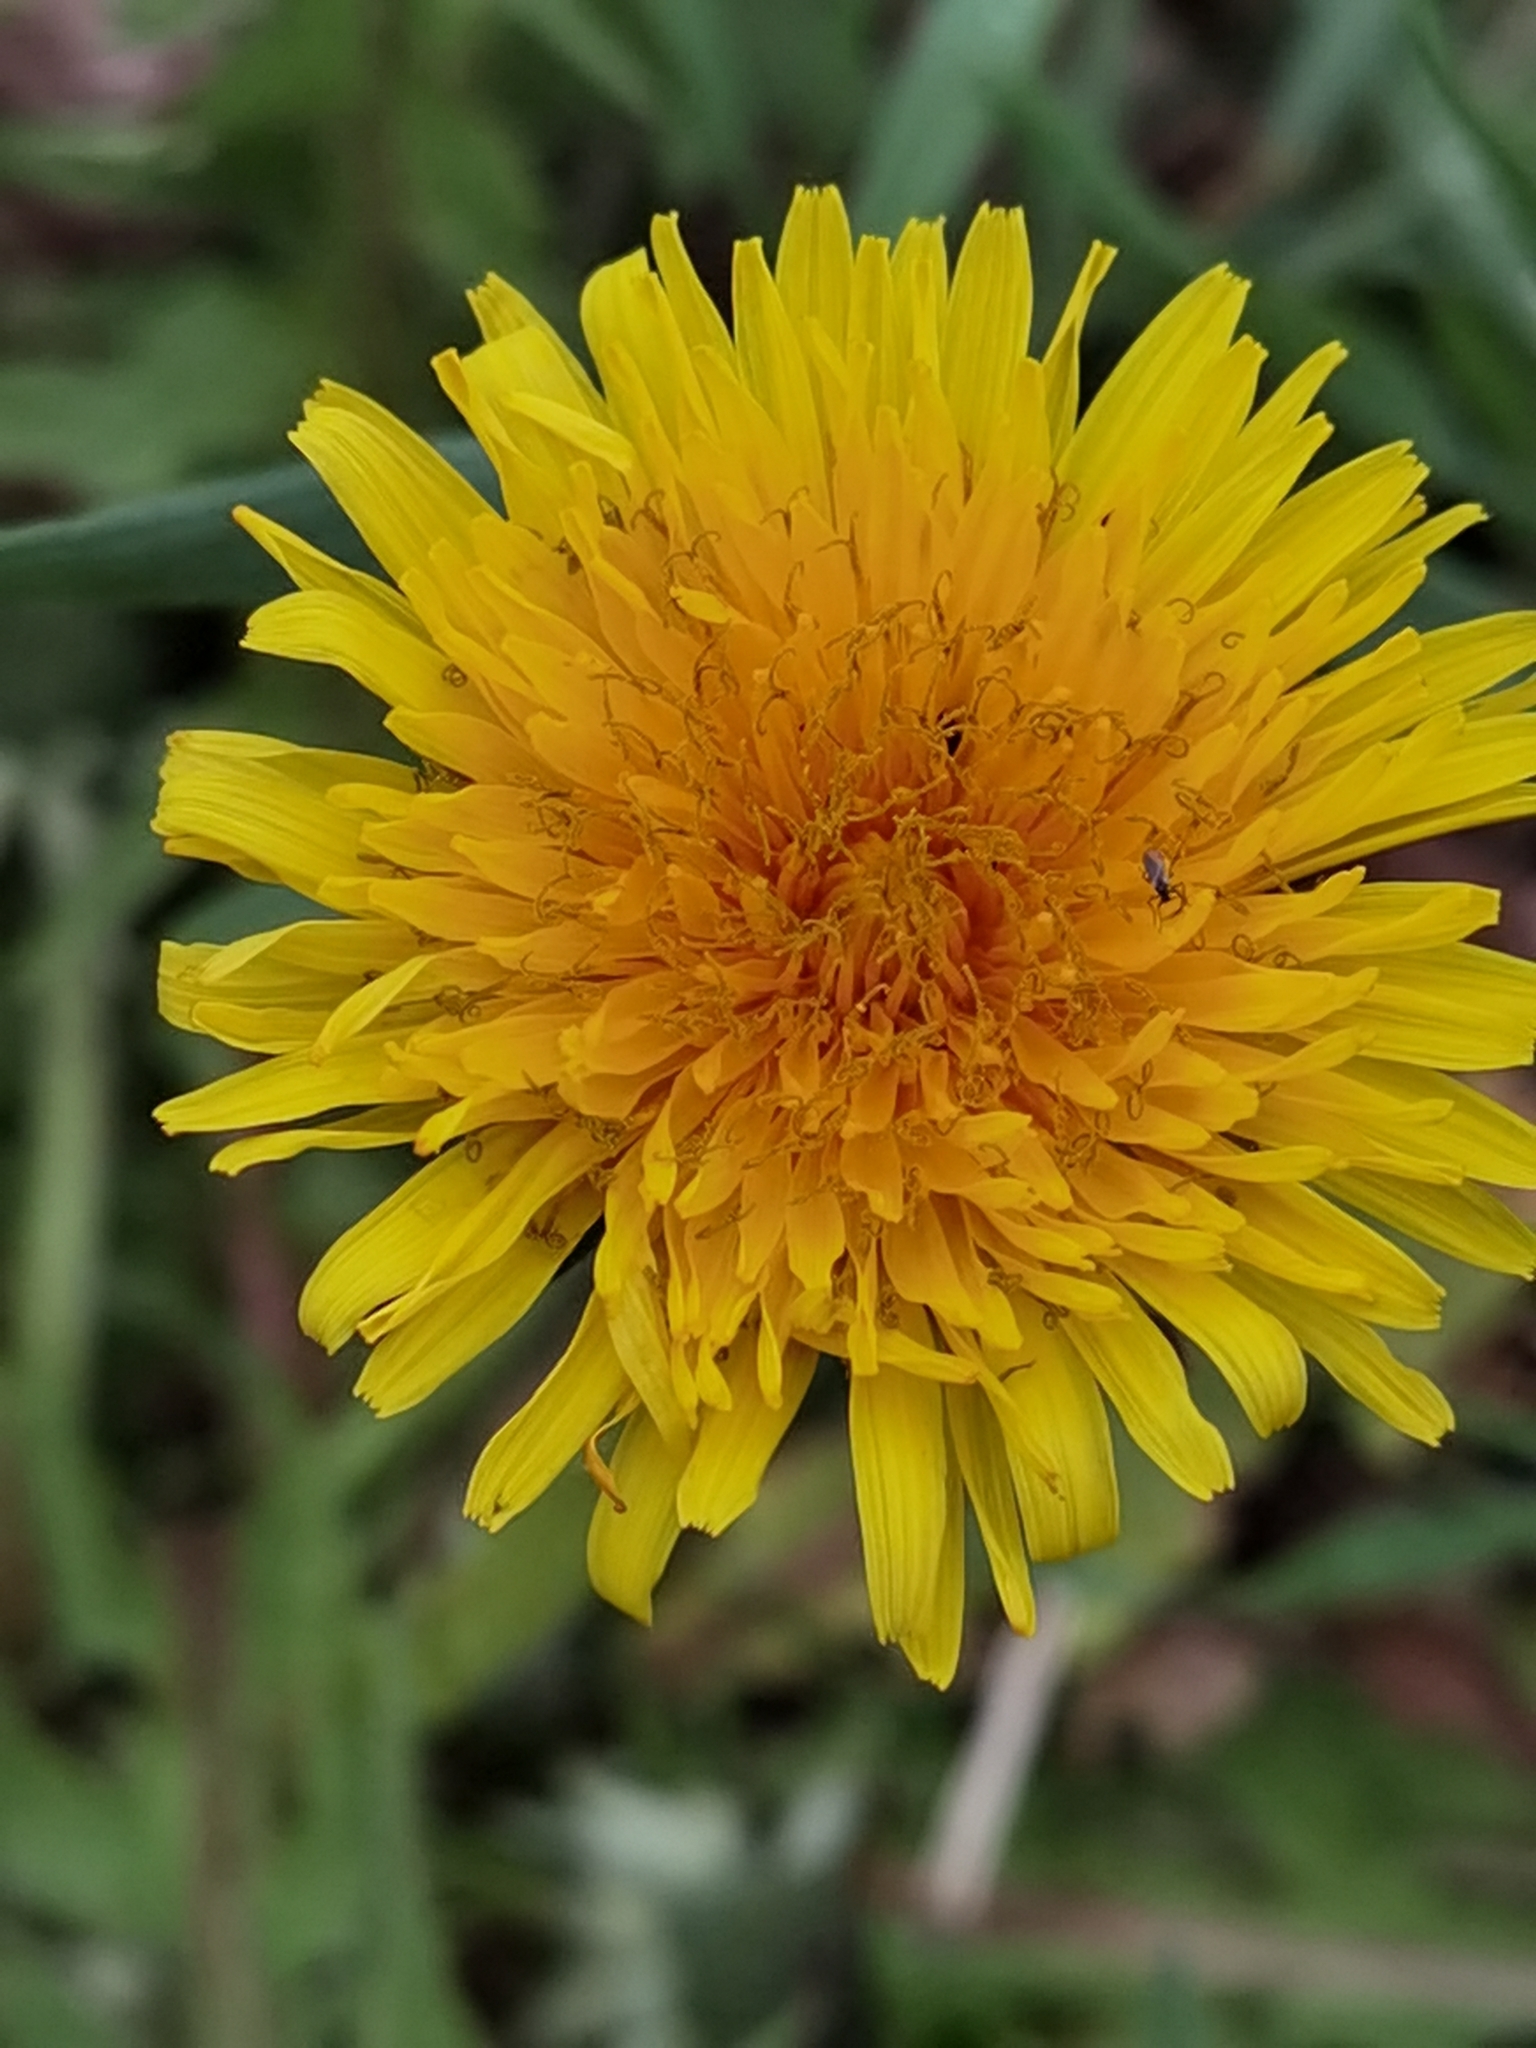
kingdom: Plantae
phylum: Tracheophyta
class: Magnoliopsida
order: Asterales
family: Asteraceae
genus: Taraxacum
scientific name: Taraxacum officinale
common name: Common dandelion
